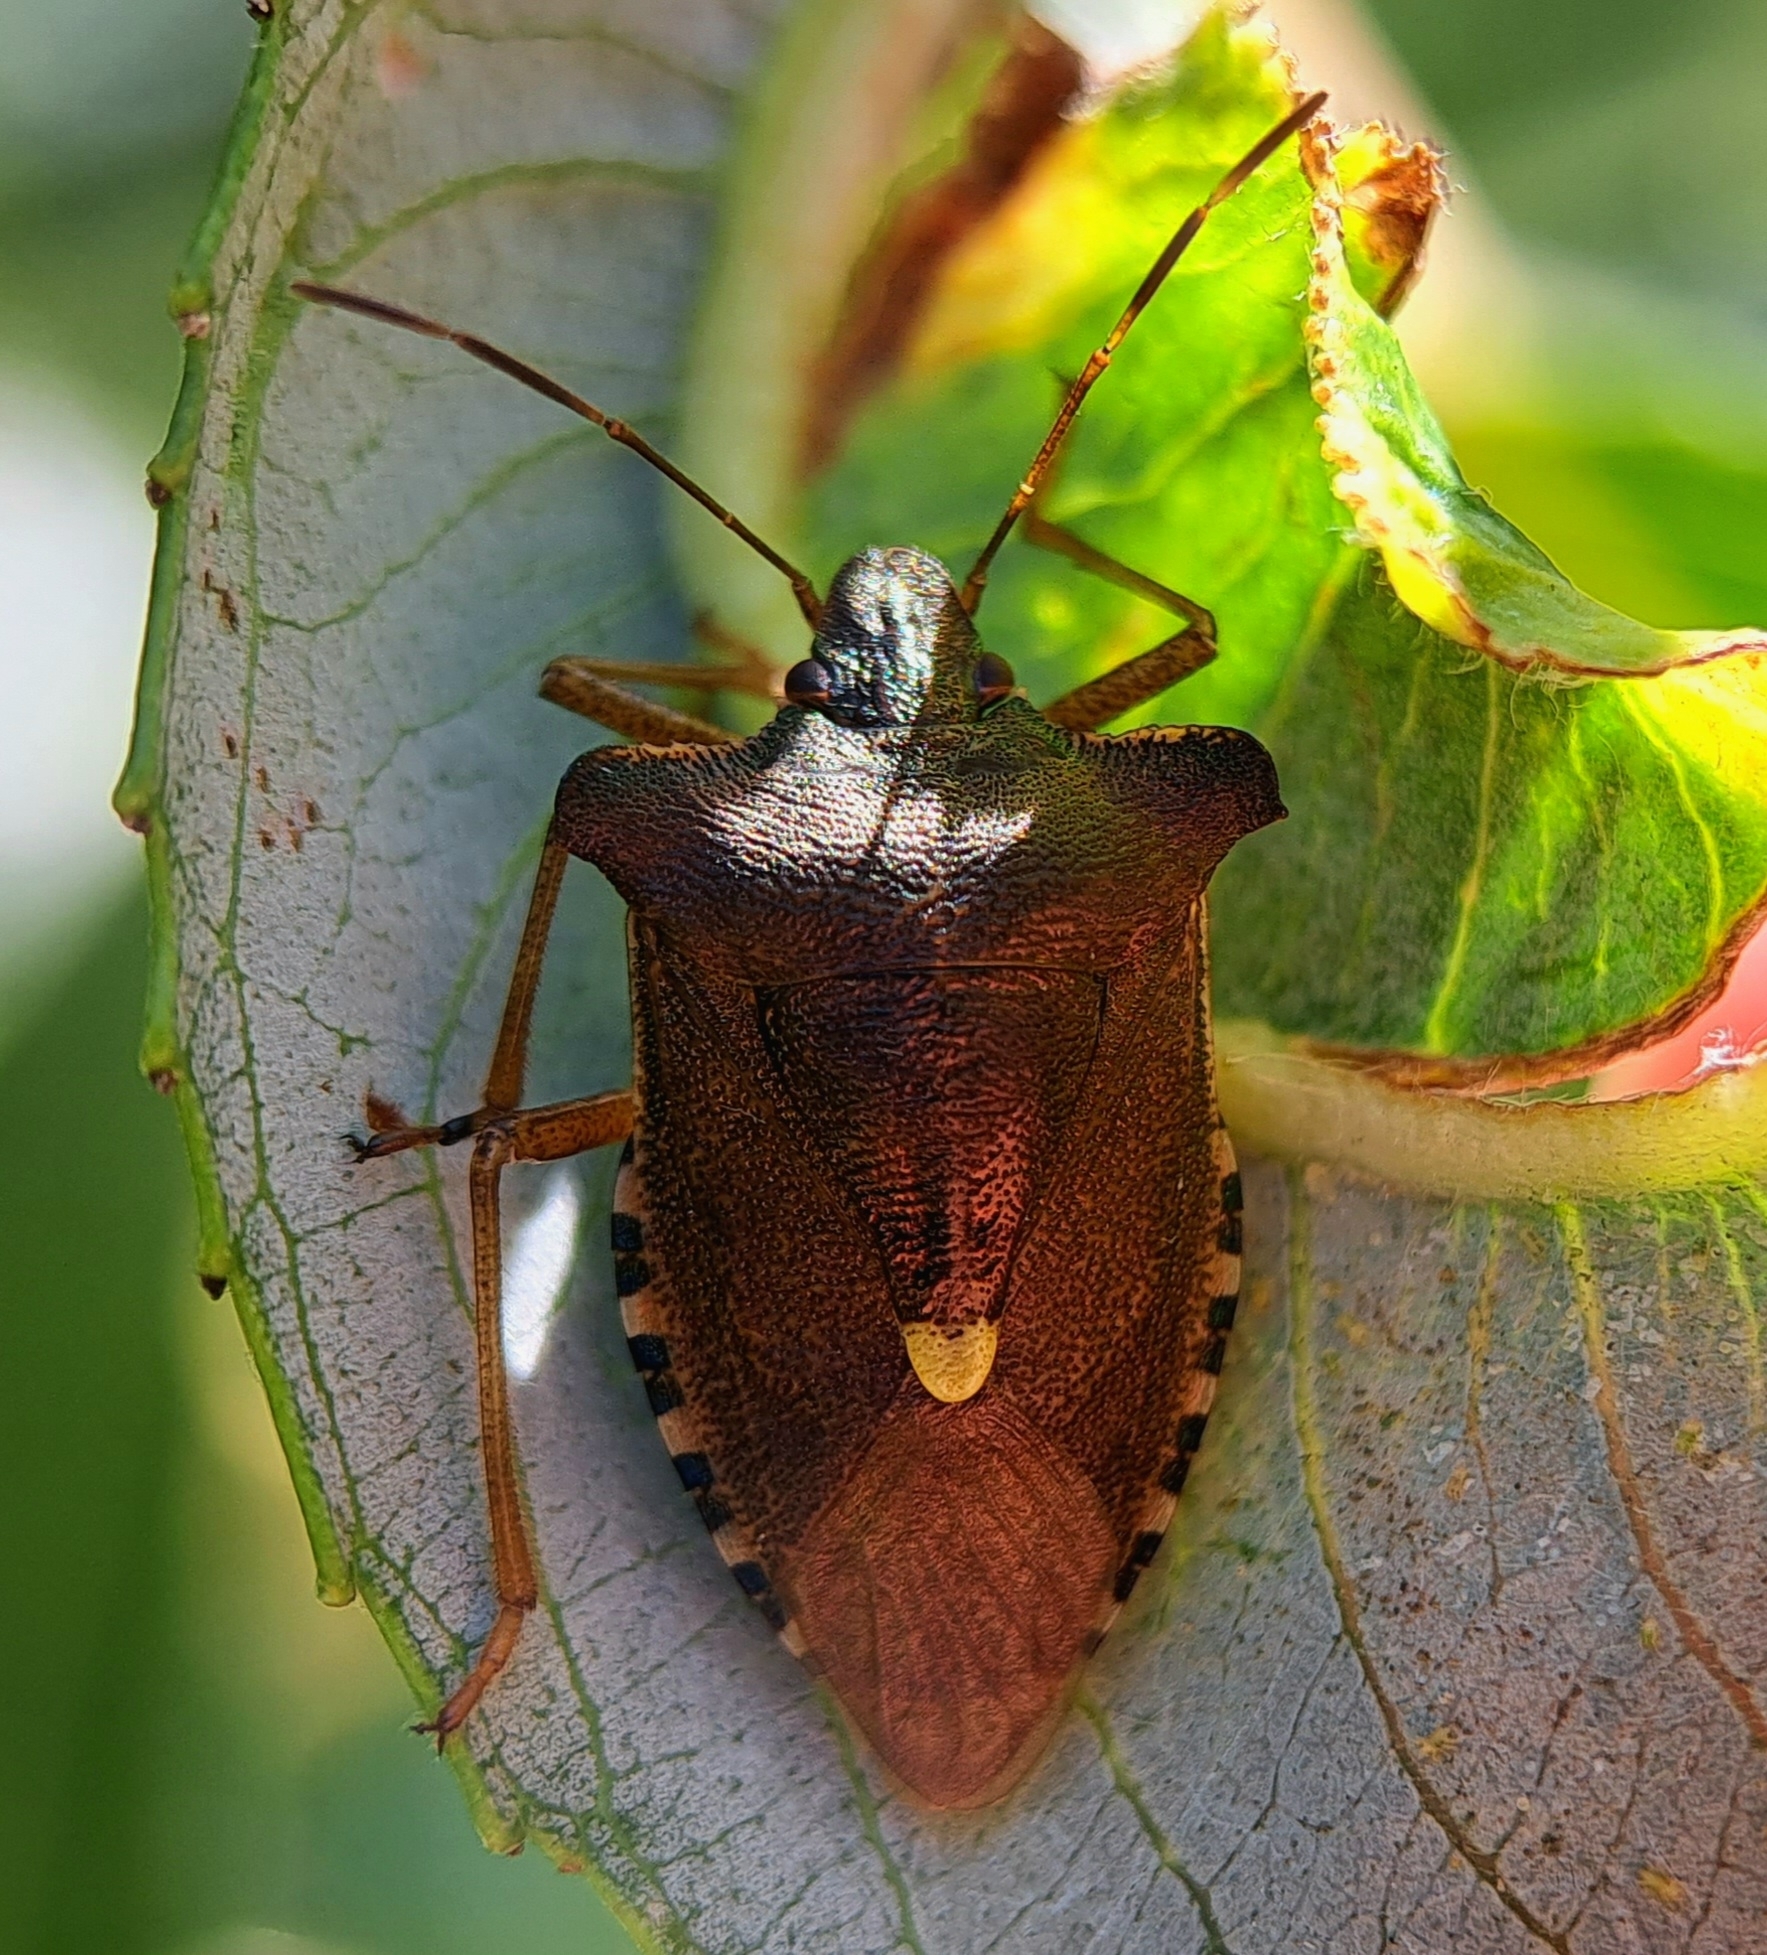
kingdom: Animalia
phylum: Arthropoda
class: Insecta
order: Hemiptera
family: Pentatomidae
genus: Pentatoma
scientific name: Pentatoma rufipes
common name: Forest bug
